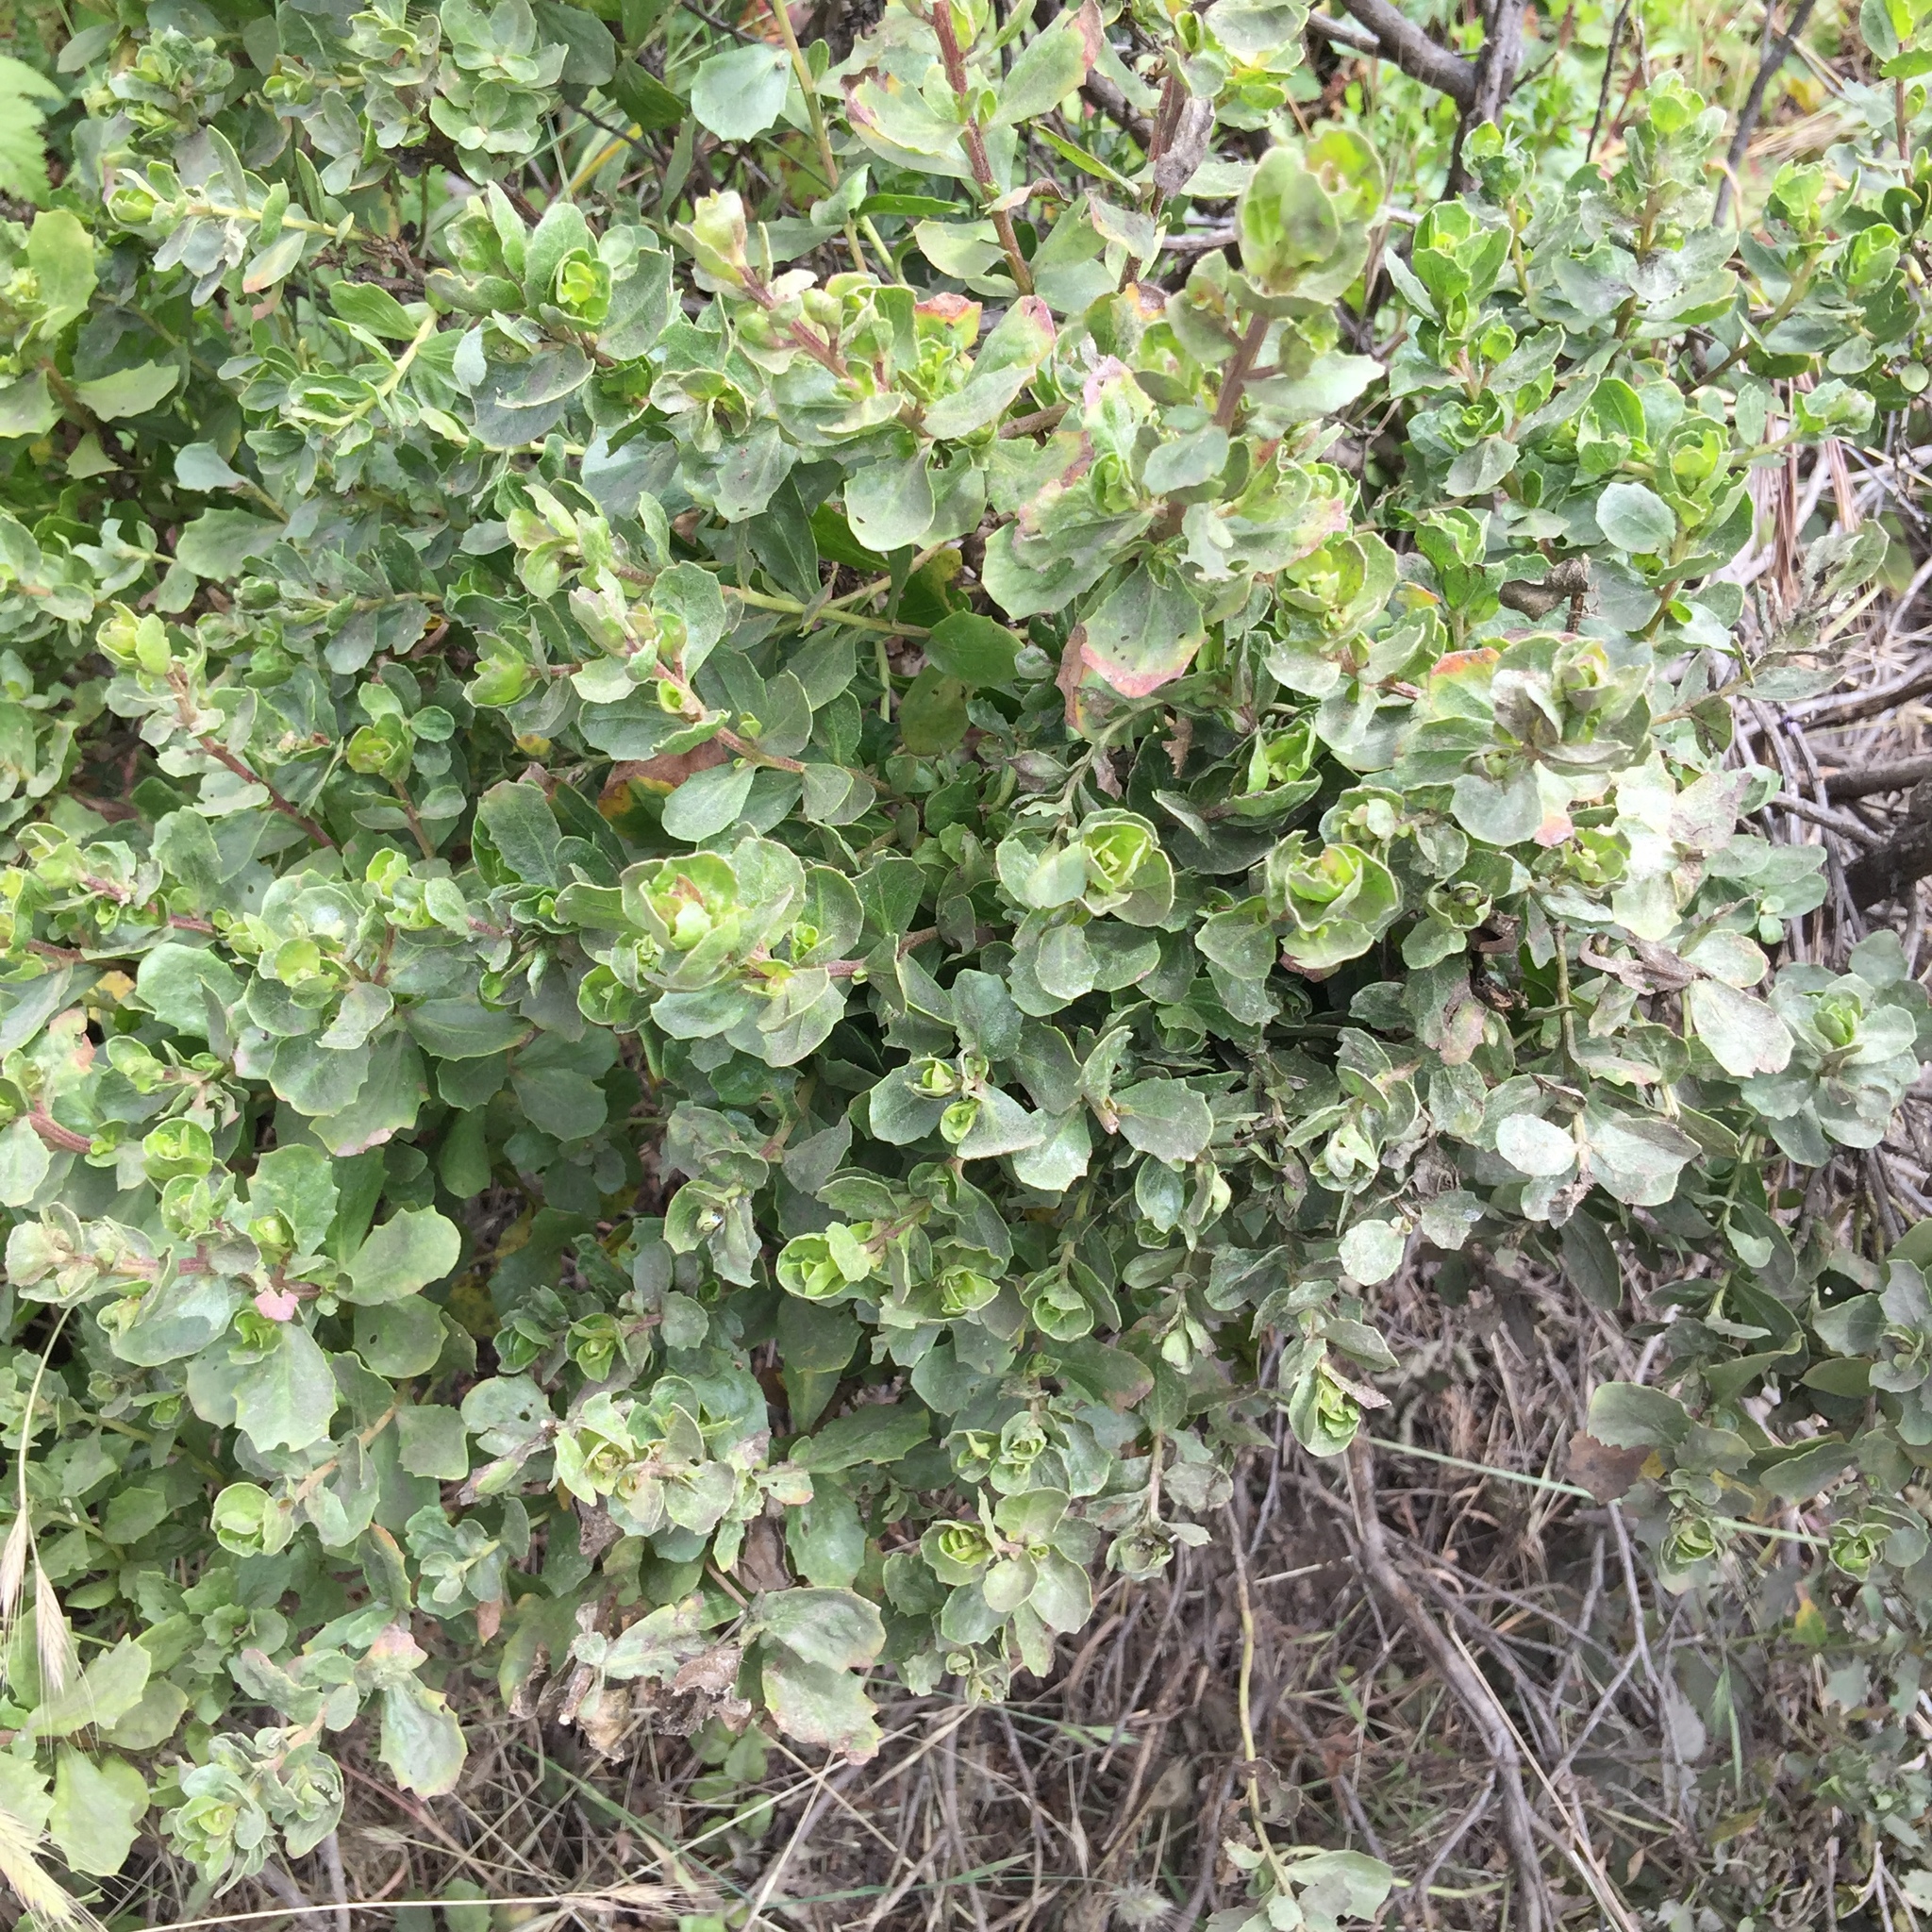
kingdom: Plantae
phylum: Tracheophyta
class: Magnoliopsida
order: Asterales
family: Asteraceae
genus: Baccharis
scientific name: Baccharis pilularis
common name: Coyotebrush
